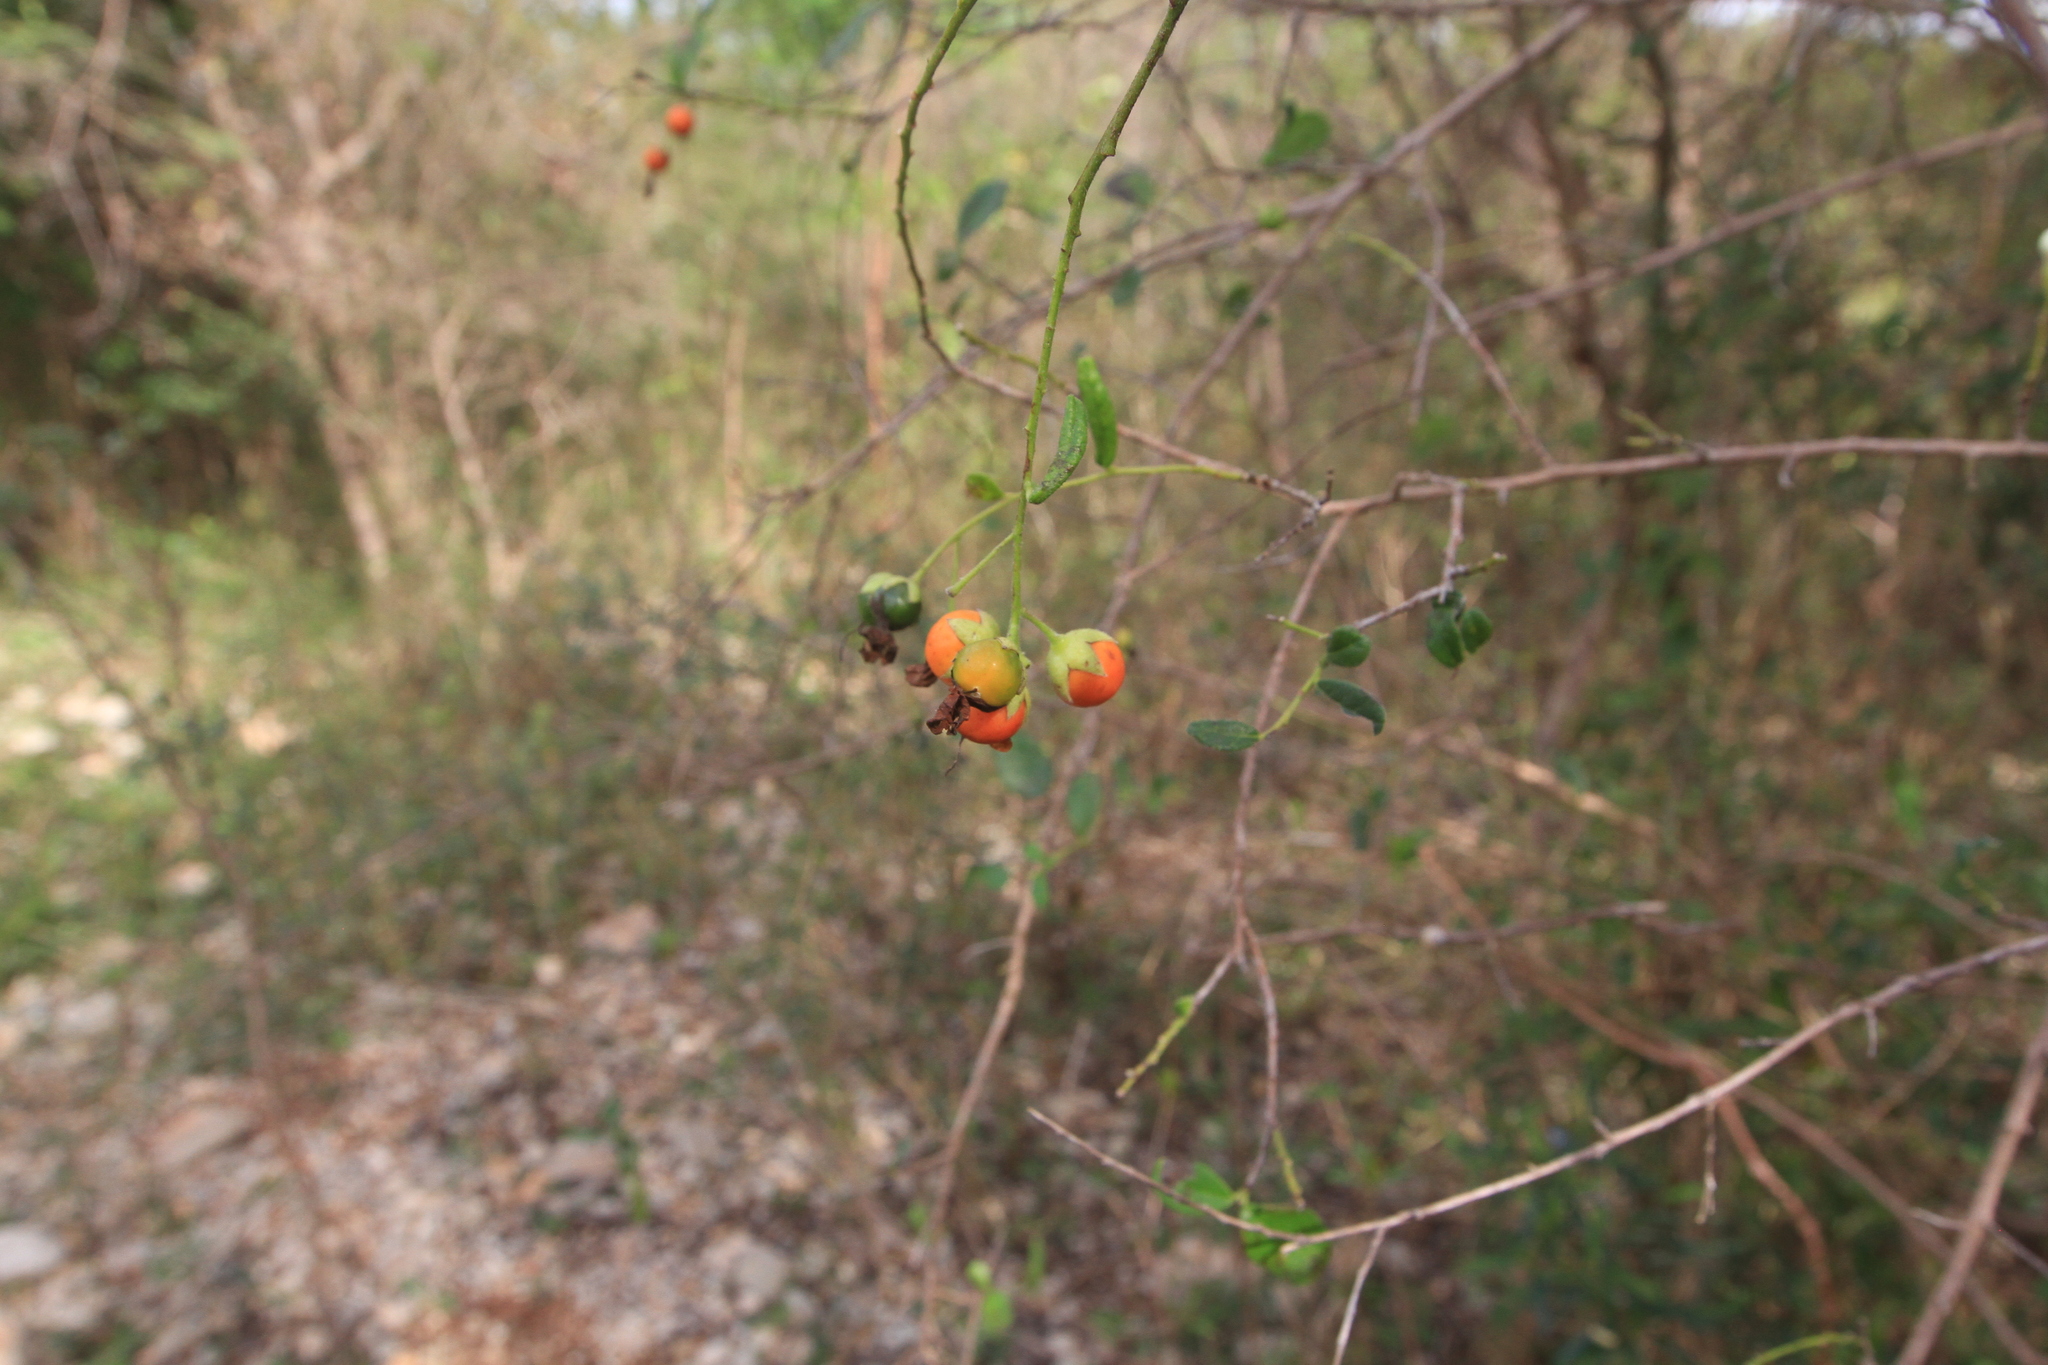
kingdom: Plantae
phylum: Tracheophyta
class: Magnoliopsida
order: Boraginales
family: Ehretiaceae
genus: Bourreria
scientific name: Bourreria succulenta
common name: Cherry
